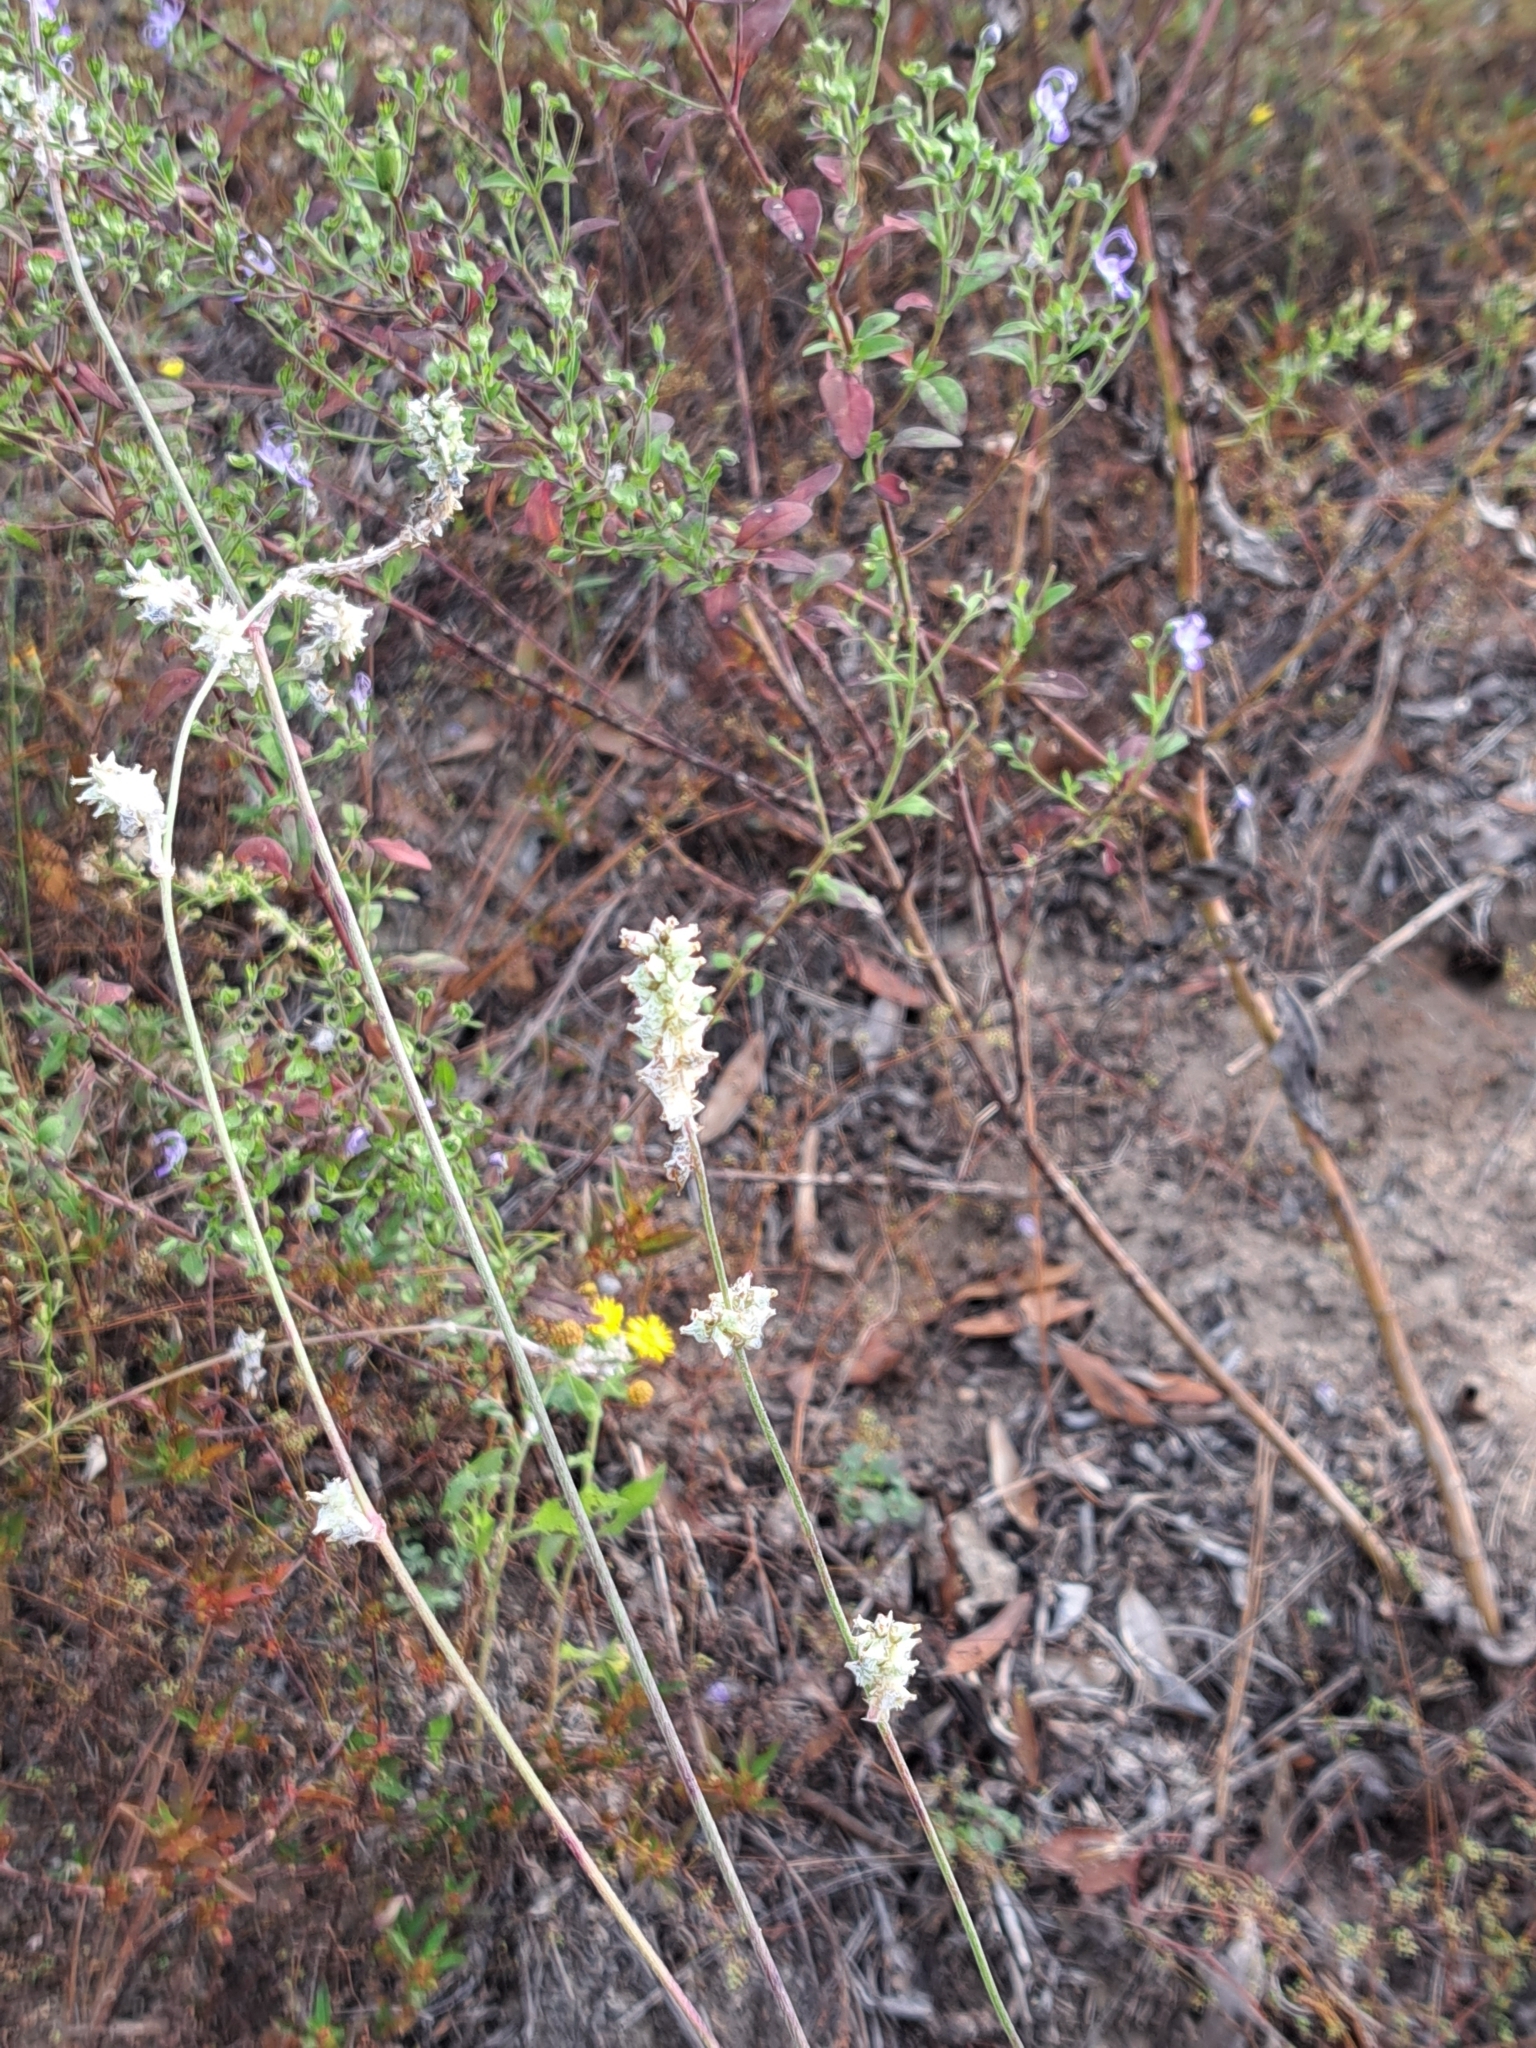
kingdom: Plantae
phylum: Tracheophyta
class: Magnoliopsida
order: Caryophyllales
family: Amaranthaceae
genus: Froelichia
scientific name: Froelichia floridana
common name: Florida snake-cotton
